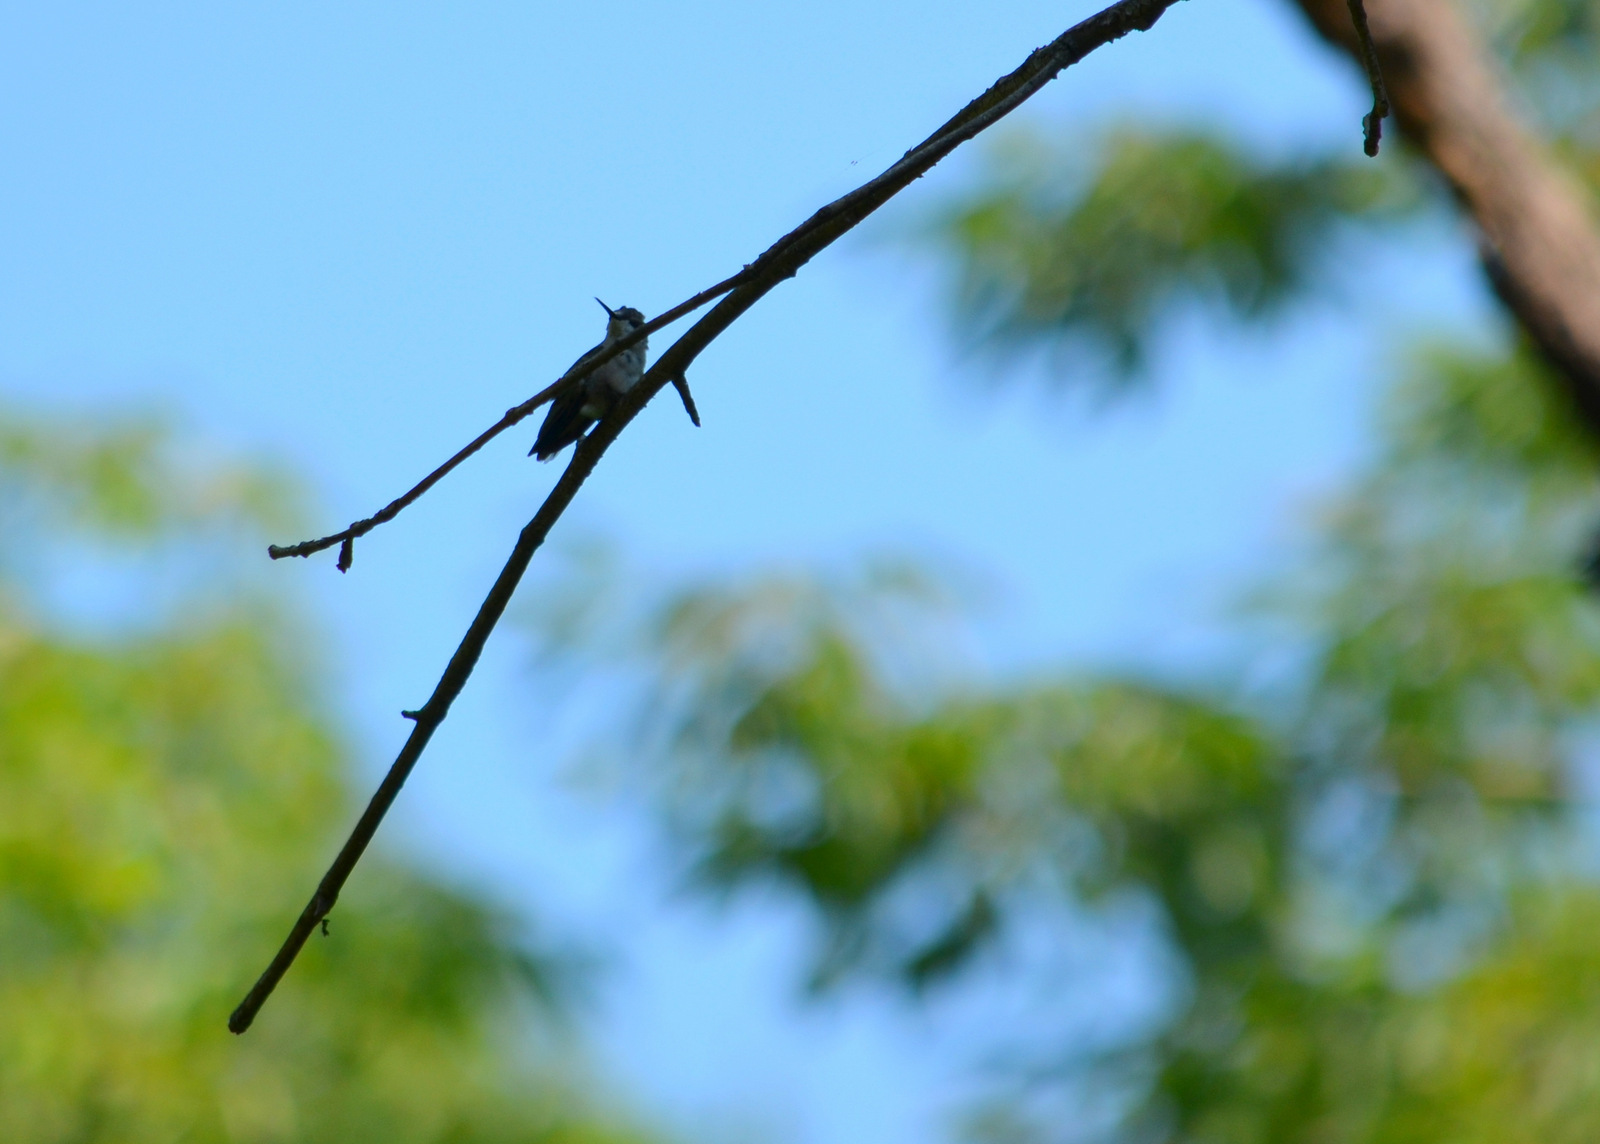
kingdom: Animalia
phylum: Chordata
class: Aves
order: Apodiformes
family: Trochilidae
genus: Archilochus
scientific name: Archilochus colubris
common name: Ruby-throated hummingbird
